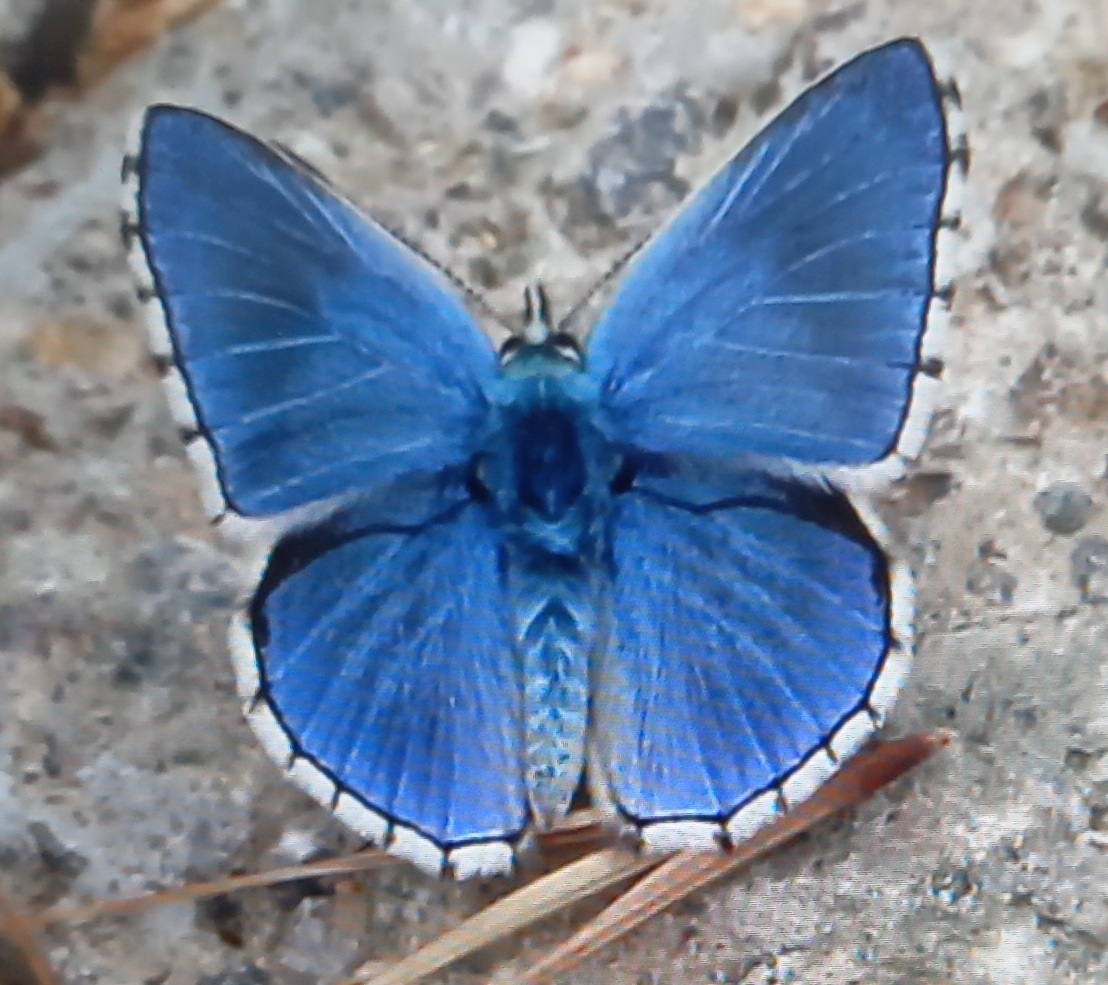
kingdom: Animalia
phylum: Arthropoda
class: Insecta
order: Lepidoptera
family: Lycaenidae
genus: Lysandra
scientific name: Lysandra bellargus
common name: Adonis blue
